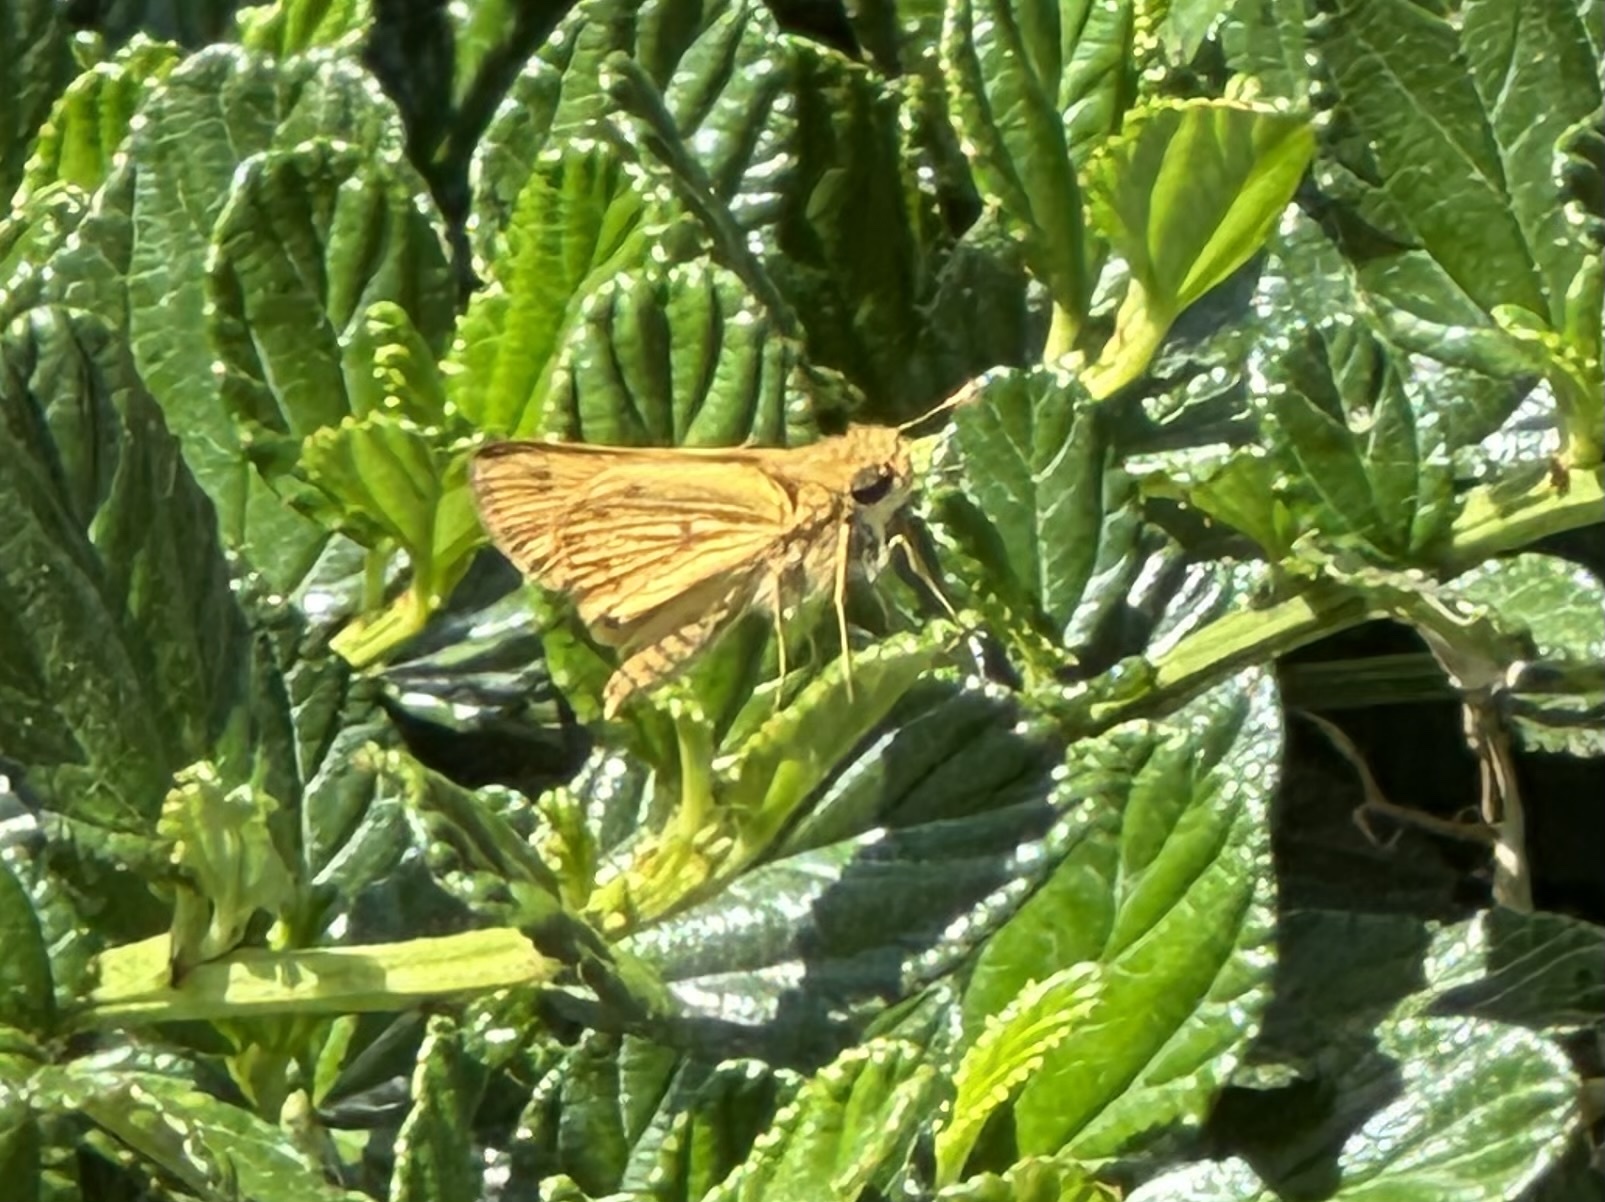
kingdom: Animalia
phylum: Arthropoda
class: Insecta
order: Lepidoptera
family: Hesperiidae
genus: Hylephila
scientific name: Hylephila phyleus
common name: Fiery skipper
